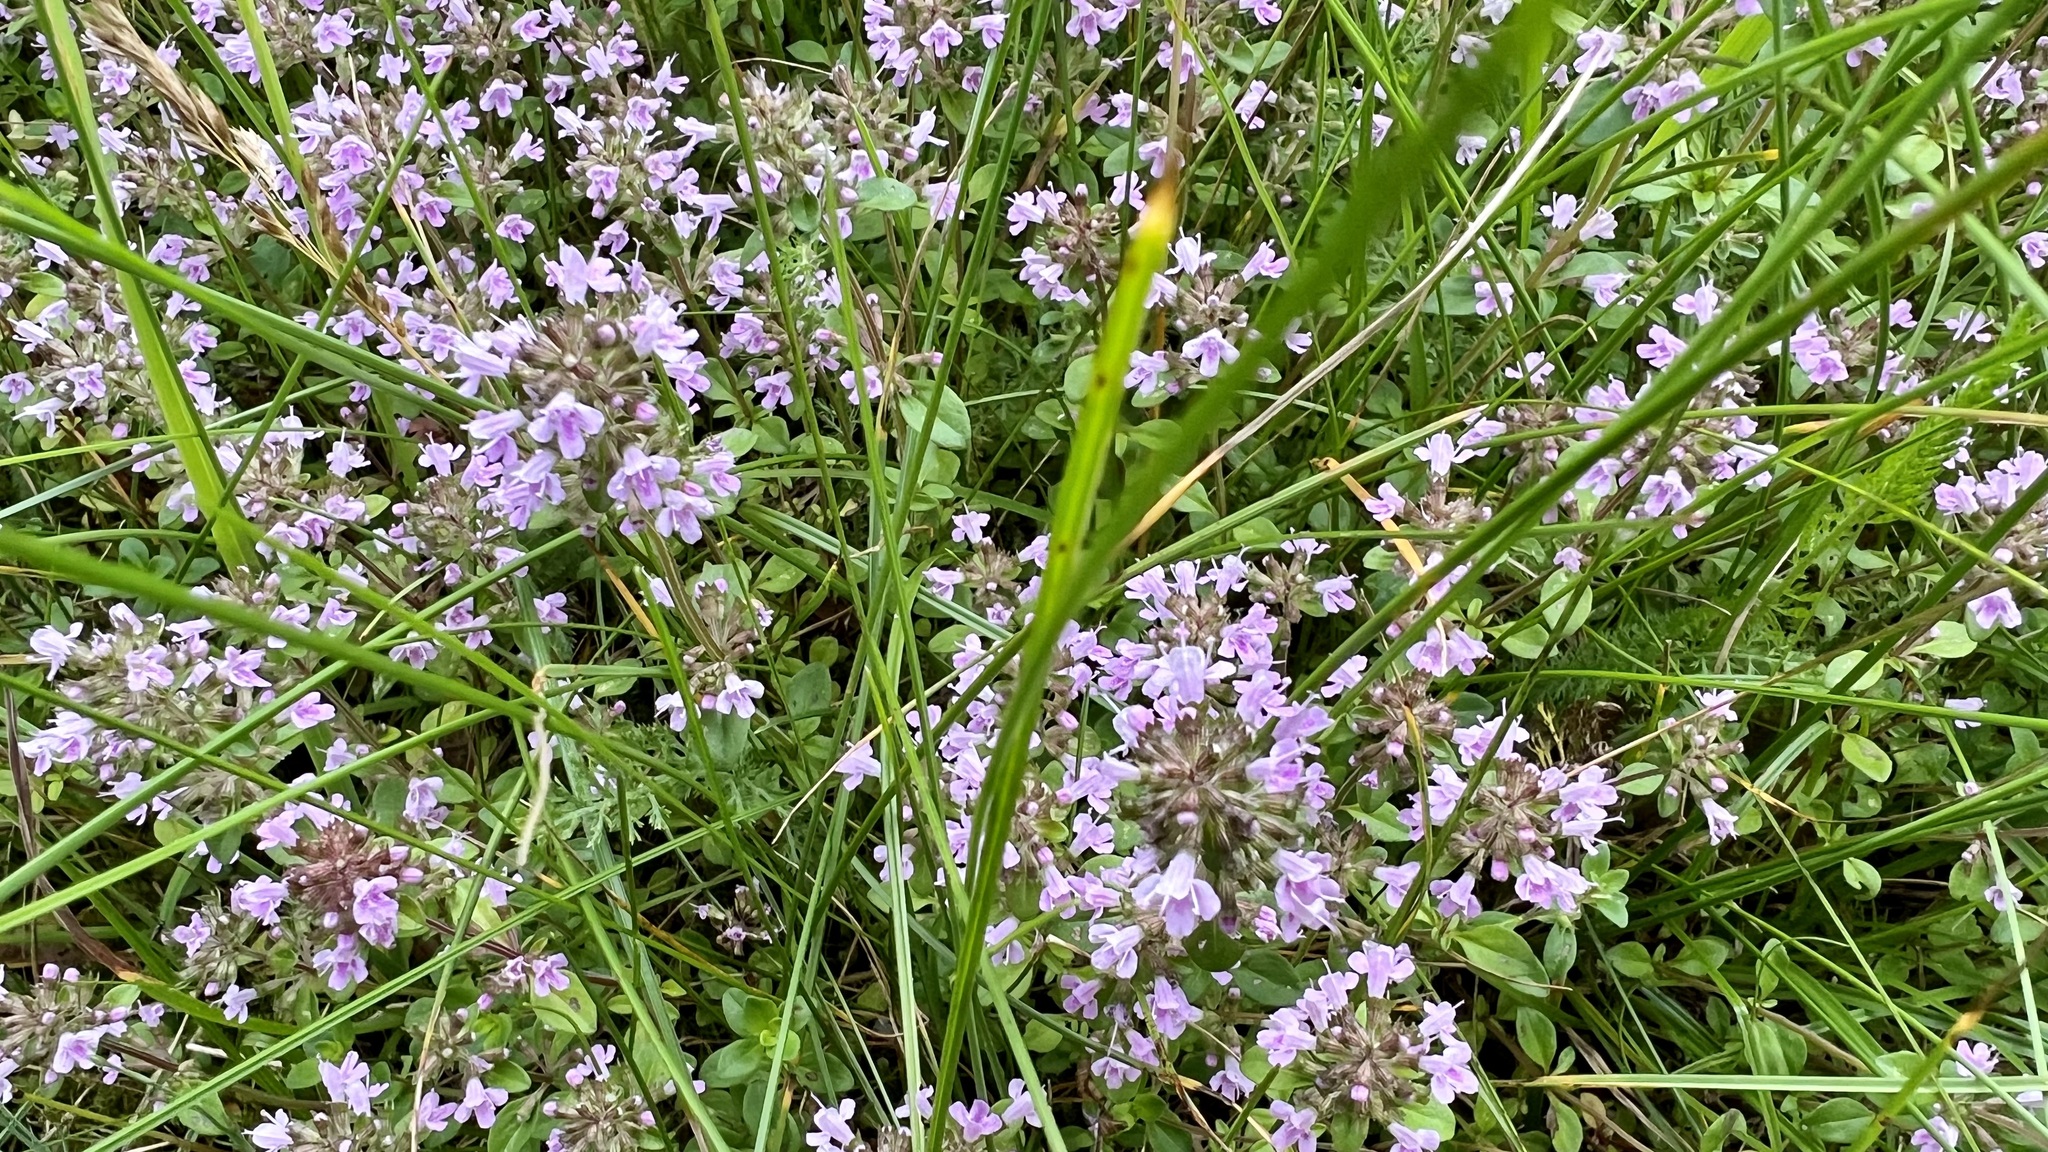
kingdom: Plantae
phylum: Tracheophyta
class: Magnoliopsida
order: Lamiales
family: Lamiaceae
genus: Thymus
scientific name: Thymus pulegioides
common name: Large thyme
